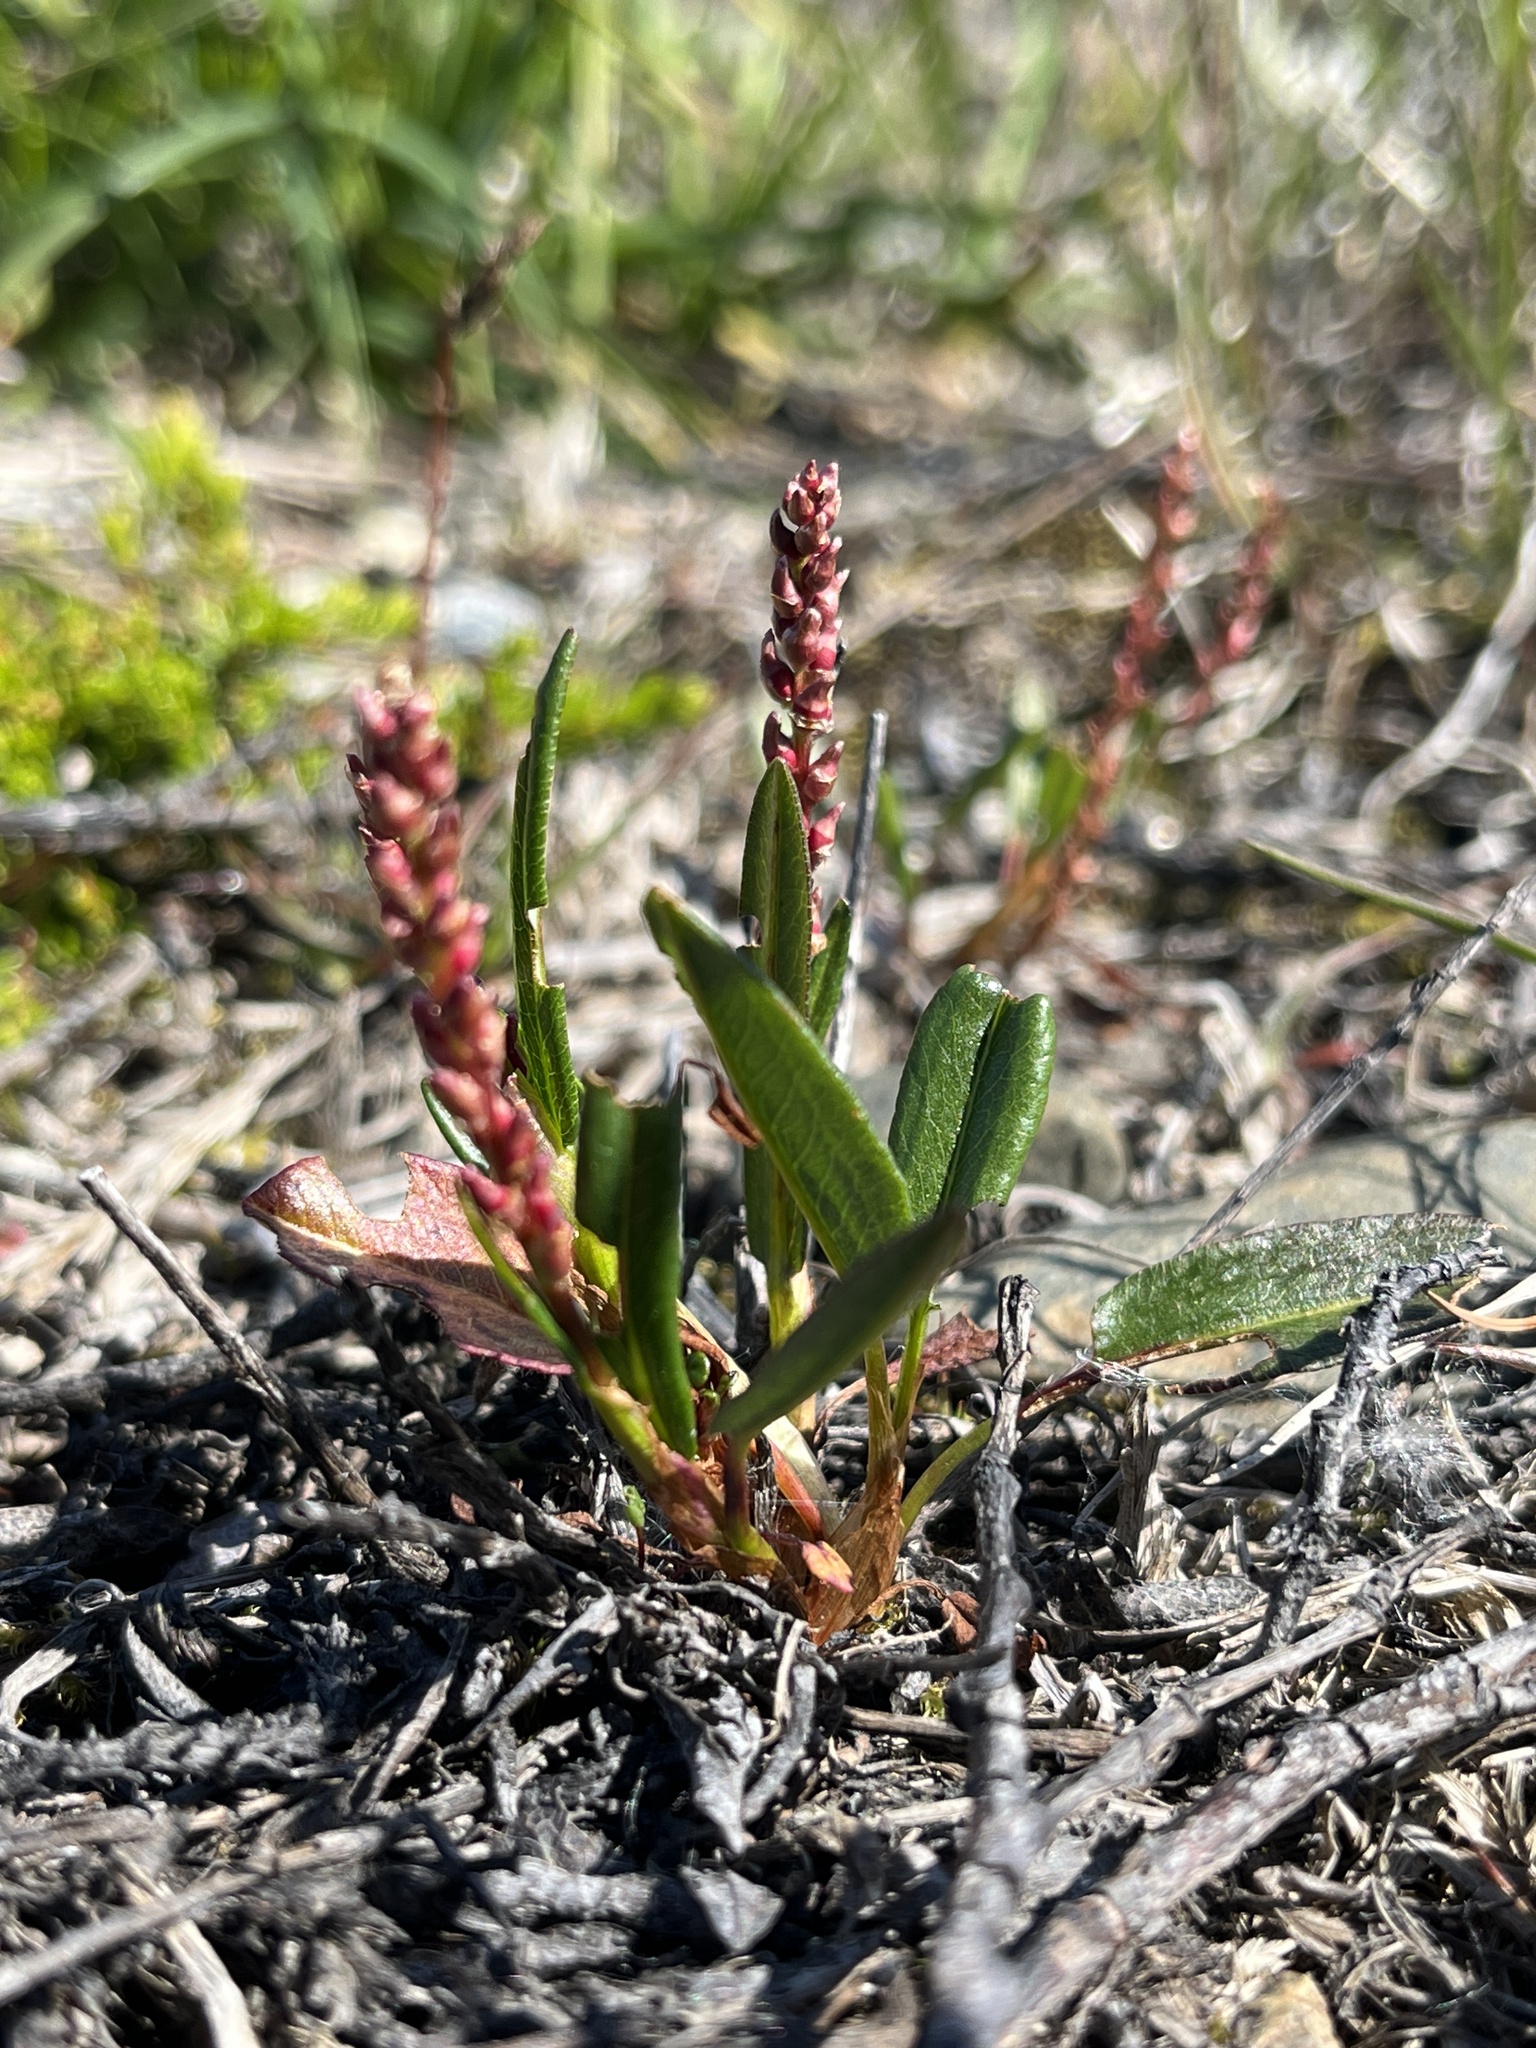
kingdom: Plantae
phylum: Tracheophyta
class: Magnoliopsida
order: Caryophyllales
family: Polygonaceae
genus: Bistorta
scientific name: Bistorta vivipara
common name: Alpine bistort
